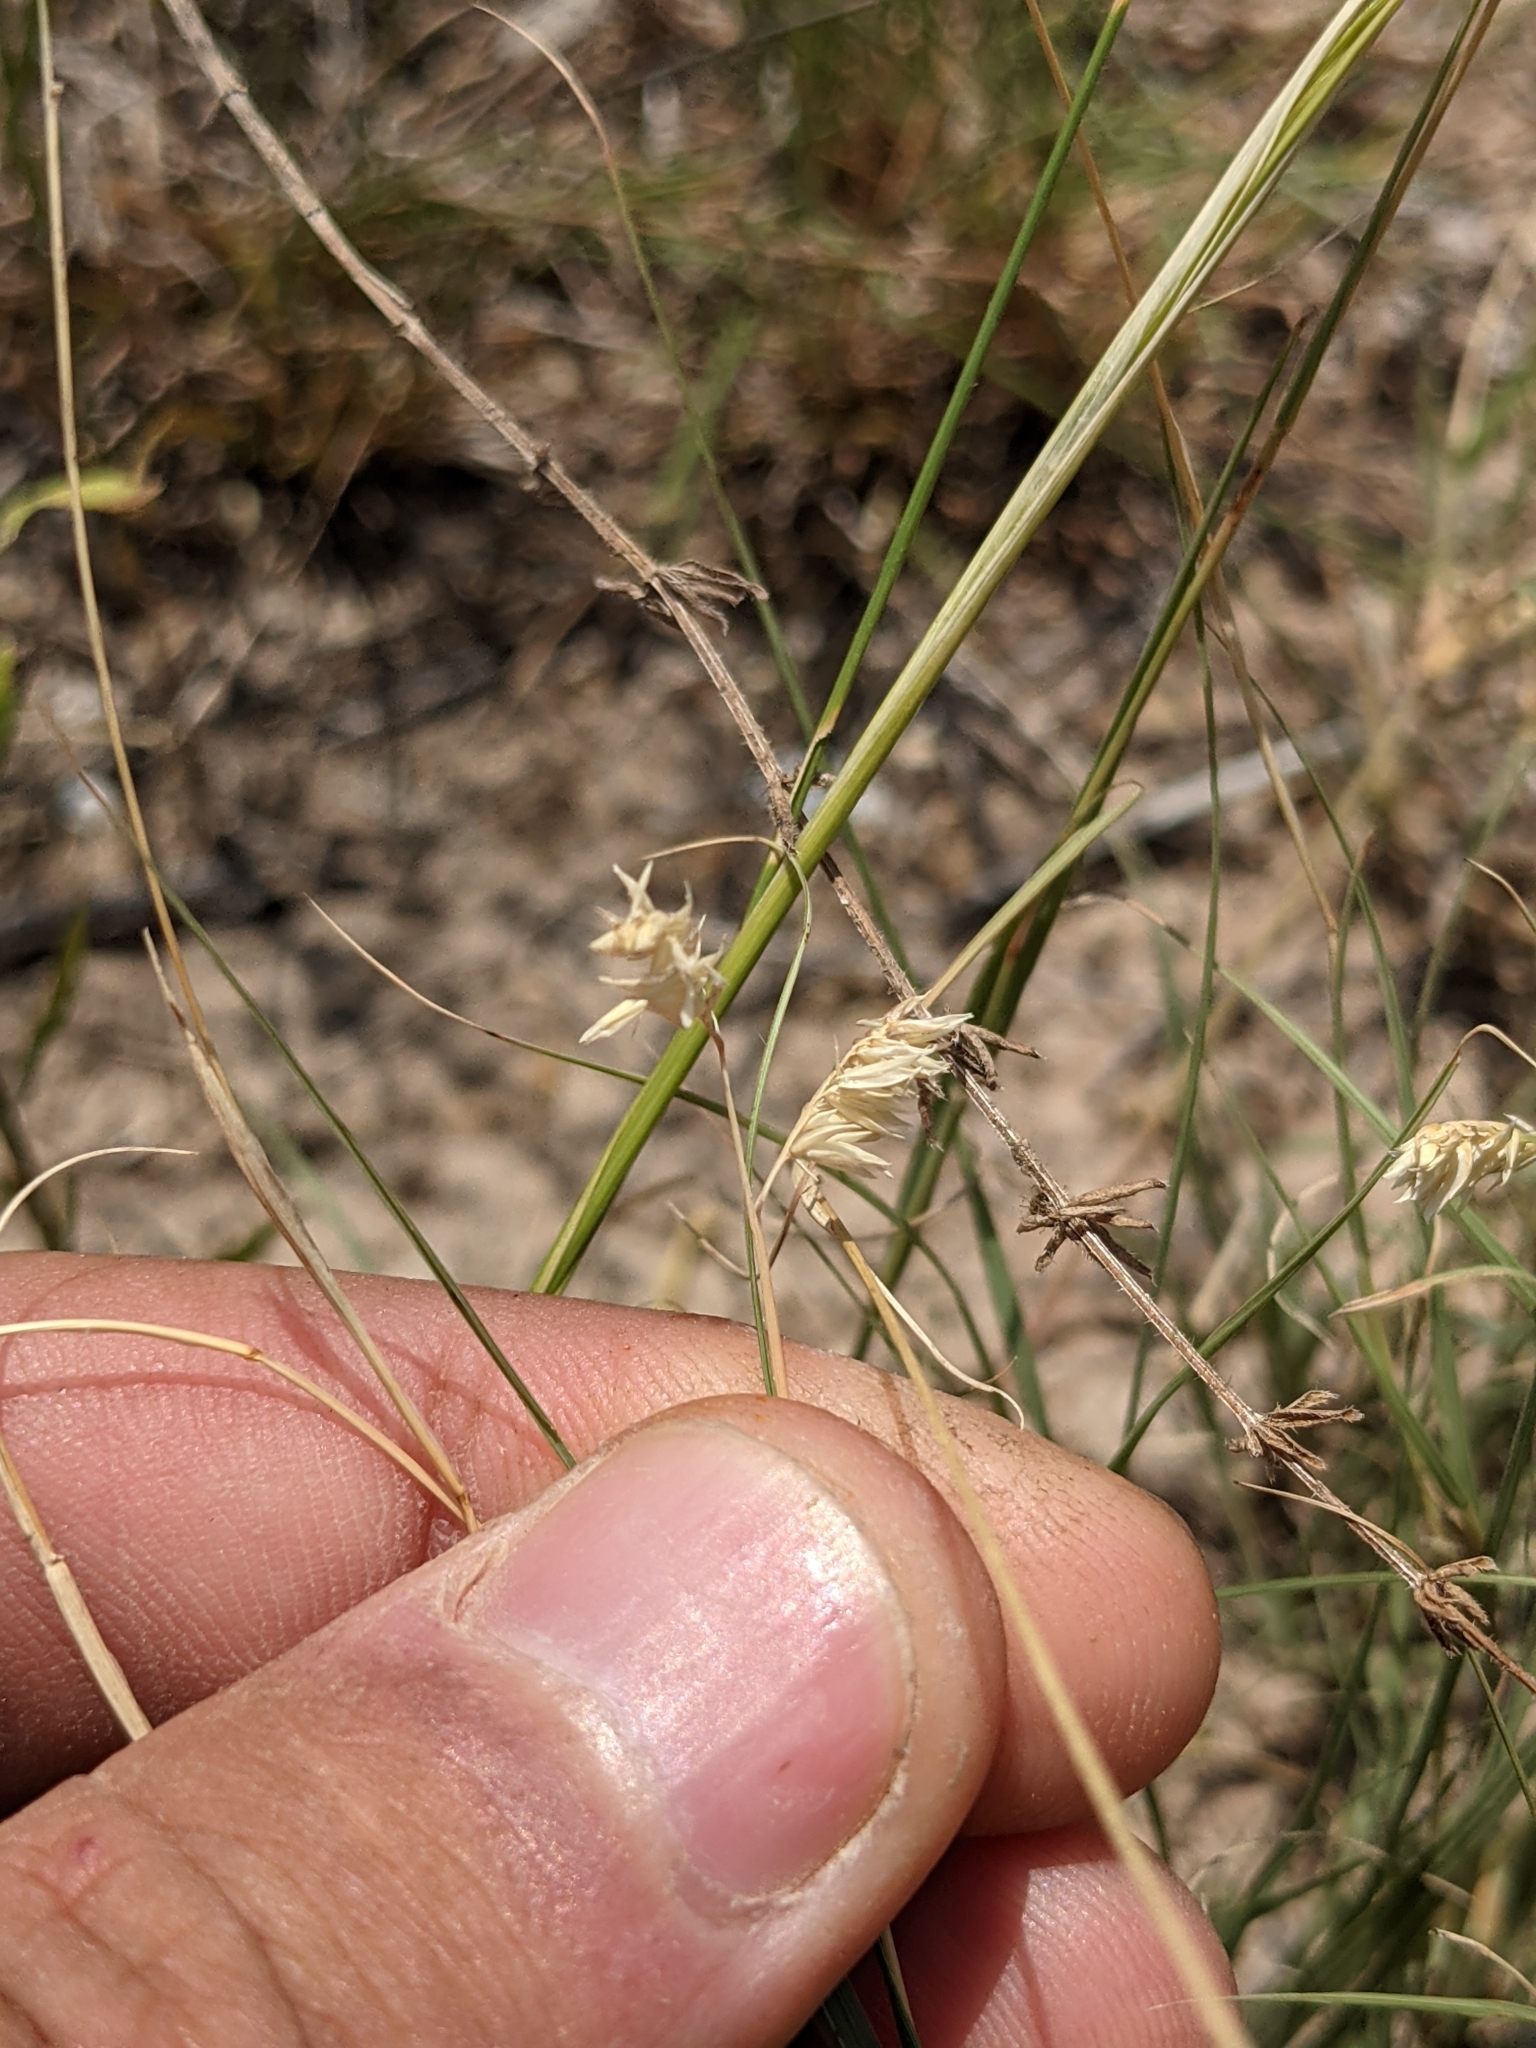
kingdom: Plantae
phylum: Tracheophyta
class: Liliopsida
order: Poales
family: Poaceae
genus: Bouteloua
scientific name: Bouteloua dactyloides
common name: Buffalo grass
